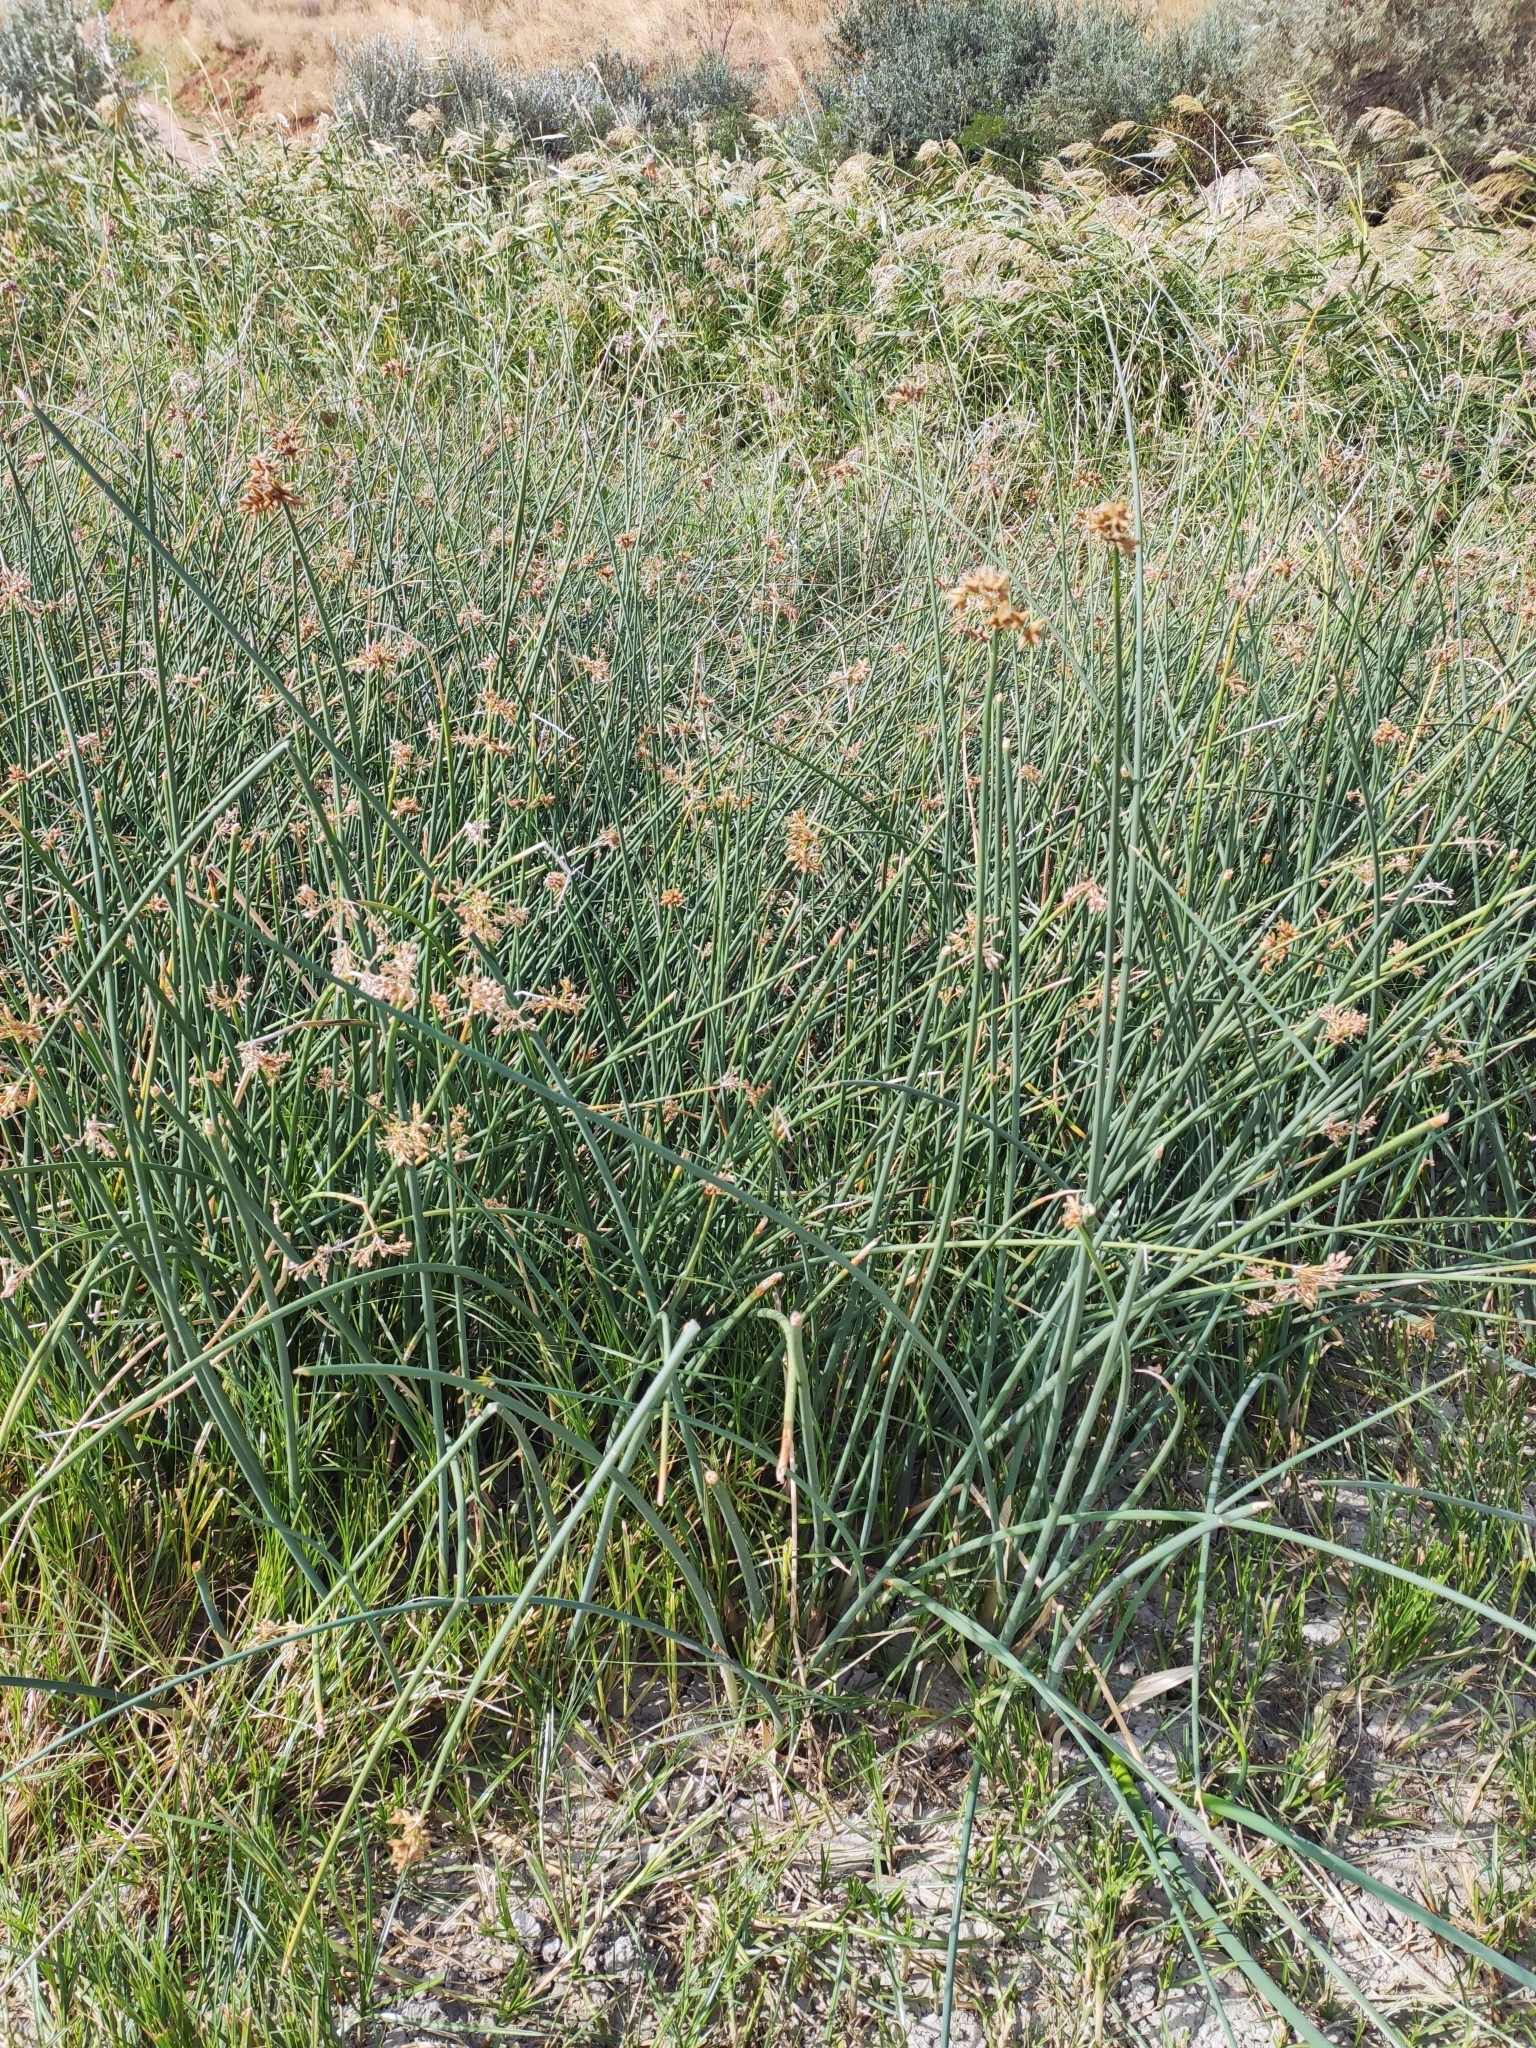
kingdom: Plantae
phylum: Tracheophyta
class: Liliopsida
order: Poales
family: Cyperaceae
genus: Schoenoplectus
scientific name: Schoenoplectus lacustris
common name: Common club-rush
